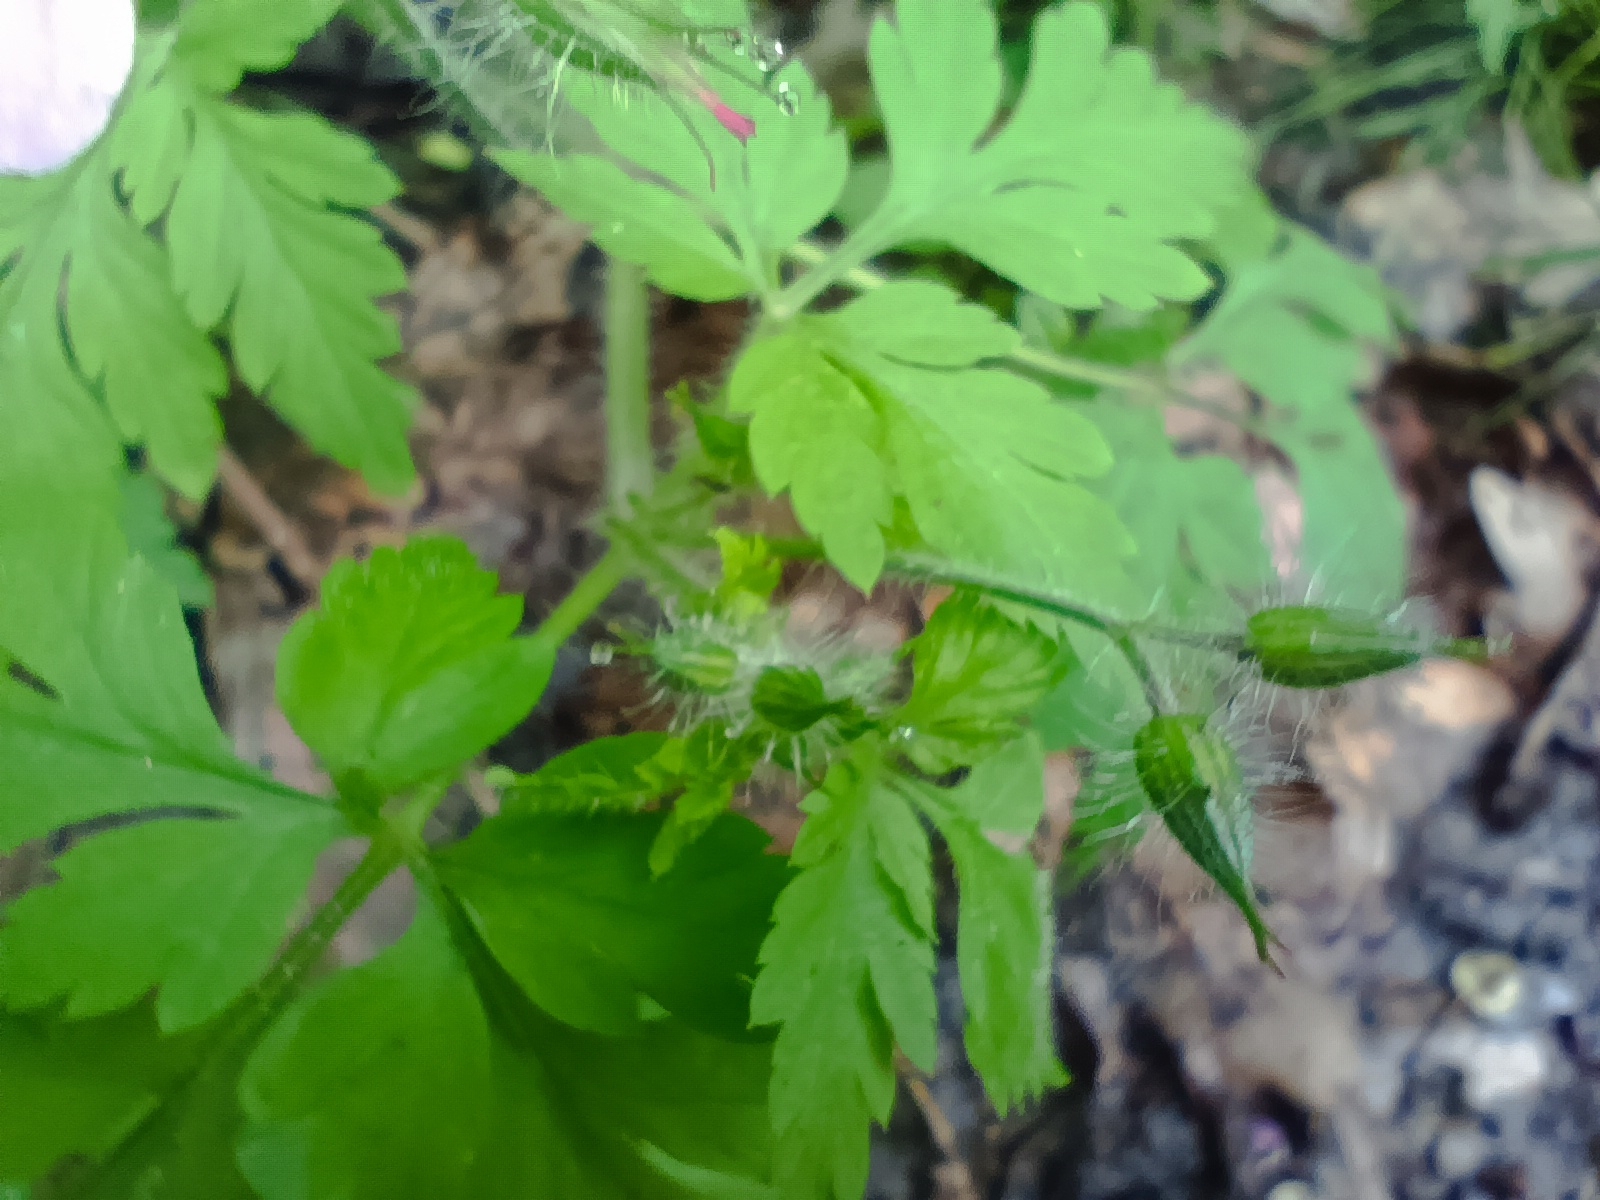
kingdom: Plantae
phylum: Tracheophyta
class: Magnoliopsida
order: Geraniales
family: Geraniaceae
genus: Geranium
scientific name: Geranium robertianum
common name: Herb-robert
